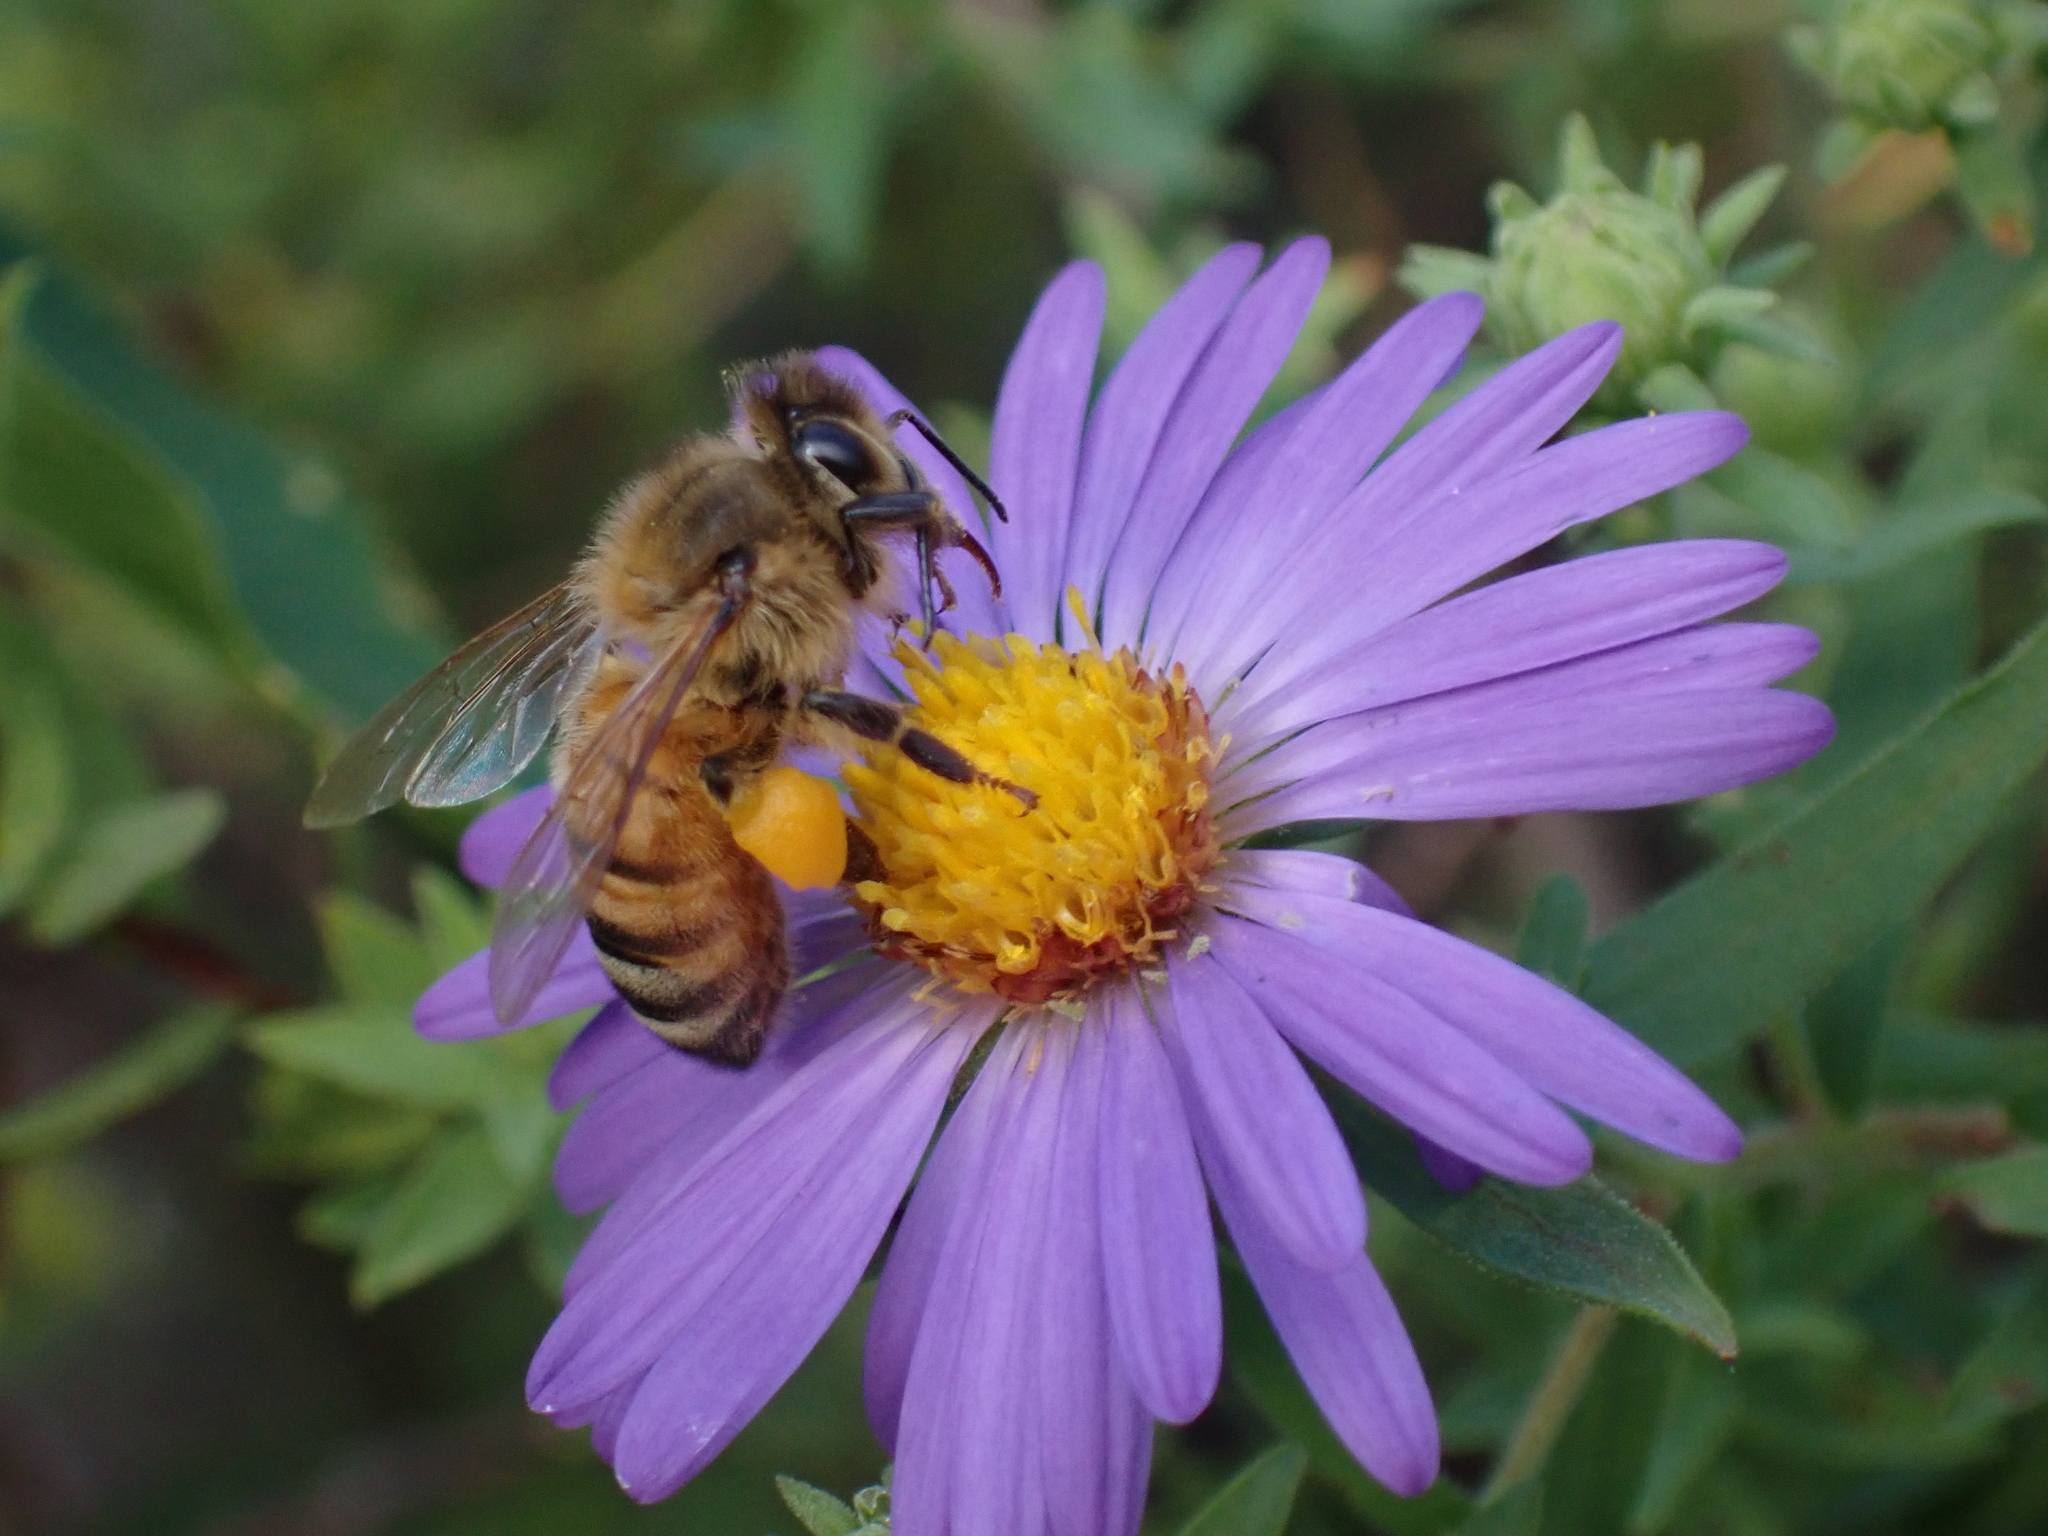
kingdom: Animalia
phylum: Arthropoda
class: Insecta
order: Hymenoptera
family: Apidae
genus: Apis
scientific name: Apis mellifera
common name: Honey bee
